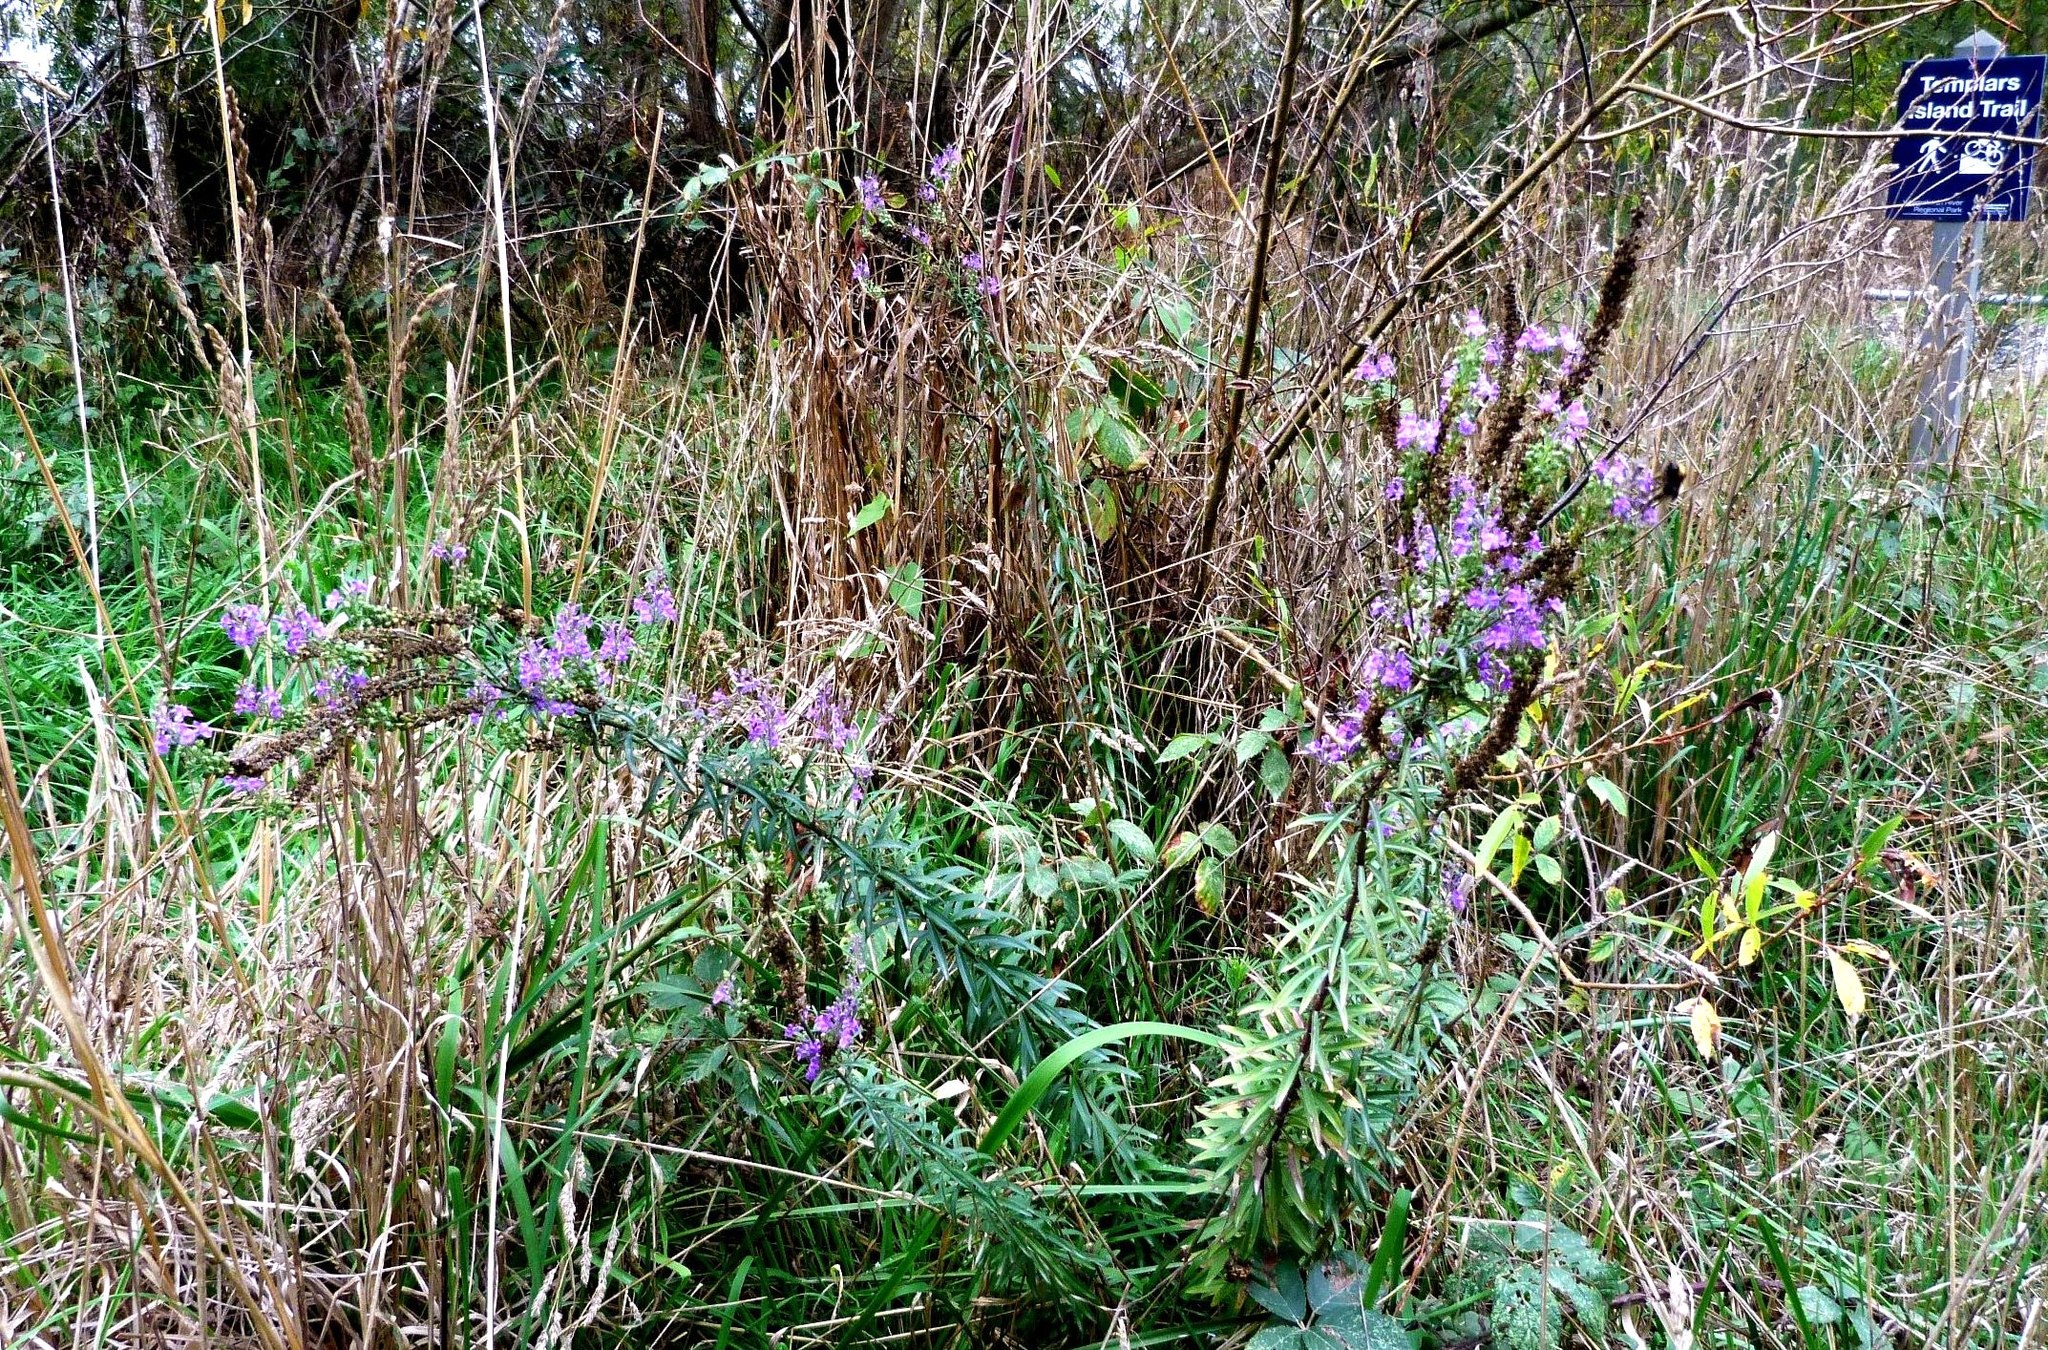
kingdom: Plantae
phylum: Tracheophyta
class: Magnoliopsida
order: Lamiales
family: Plantaginaceae
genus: Linaria
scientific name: Linaria purpurea
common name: Purple toadflax
